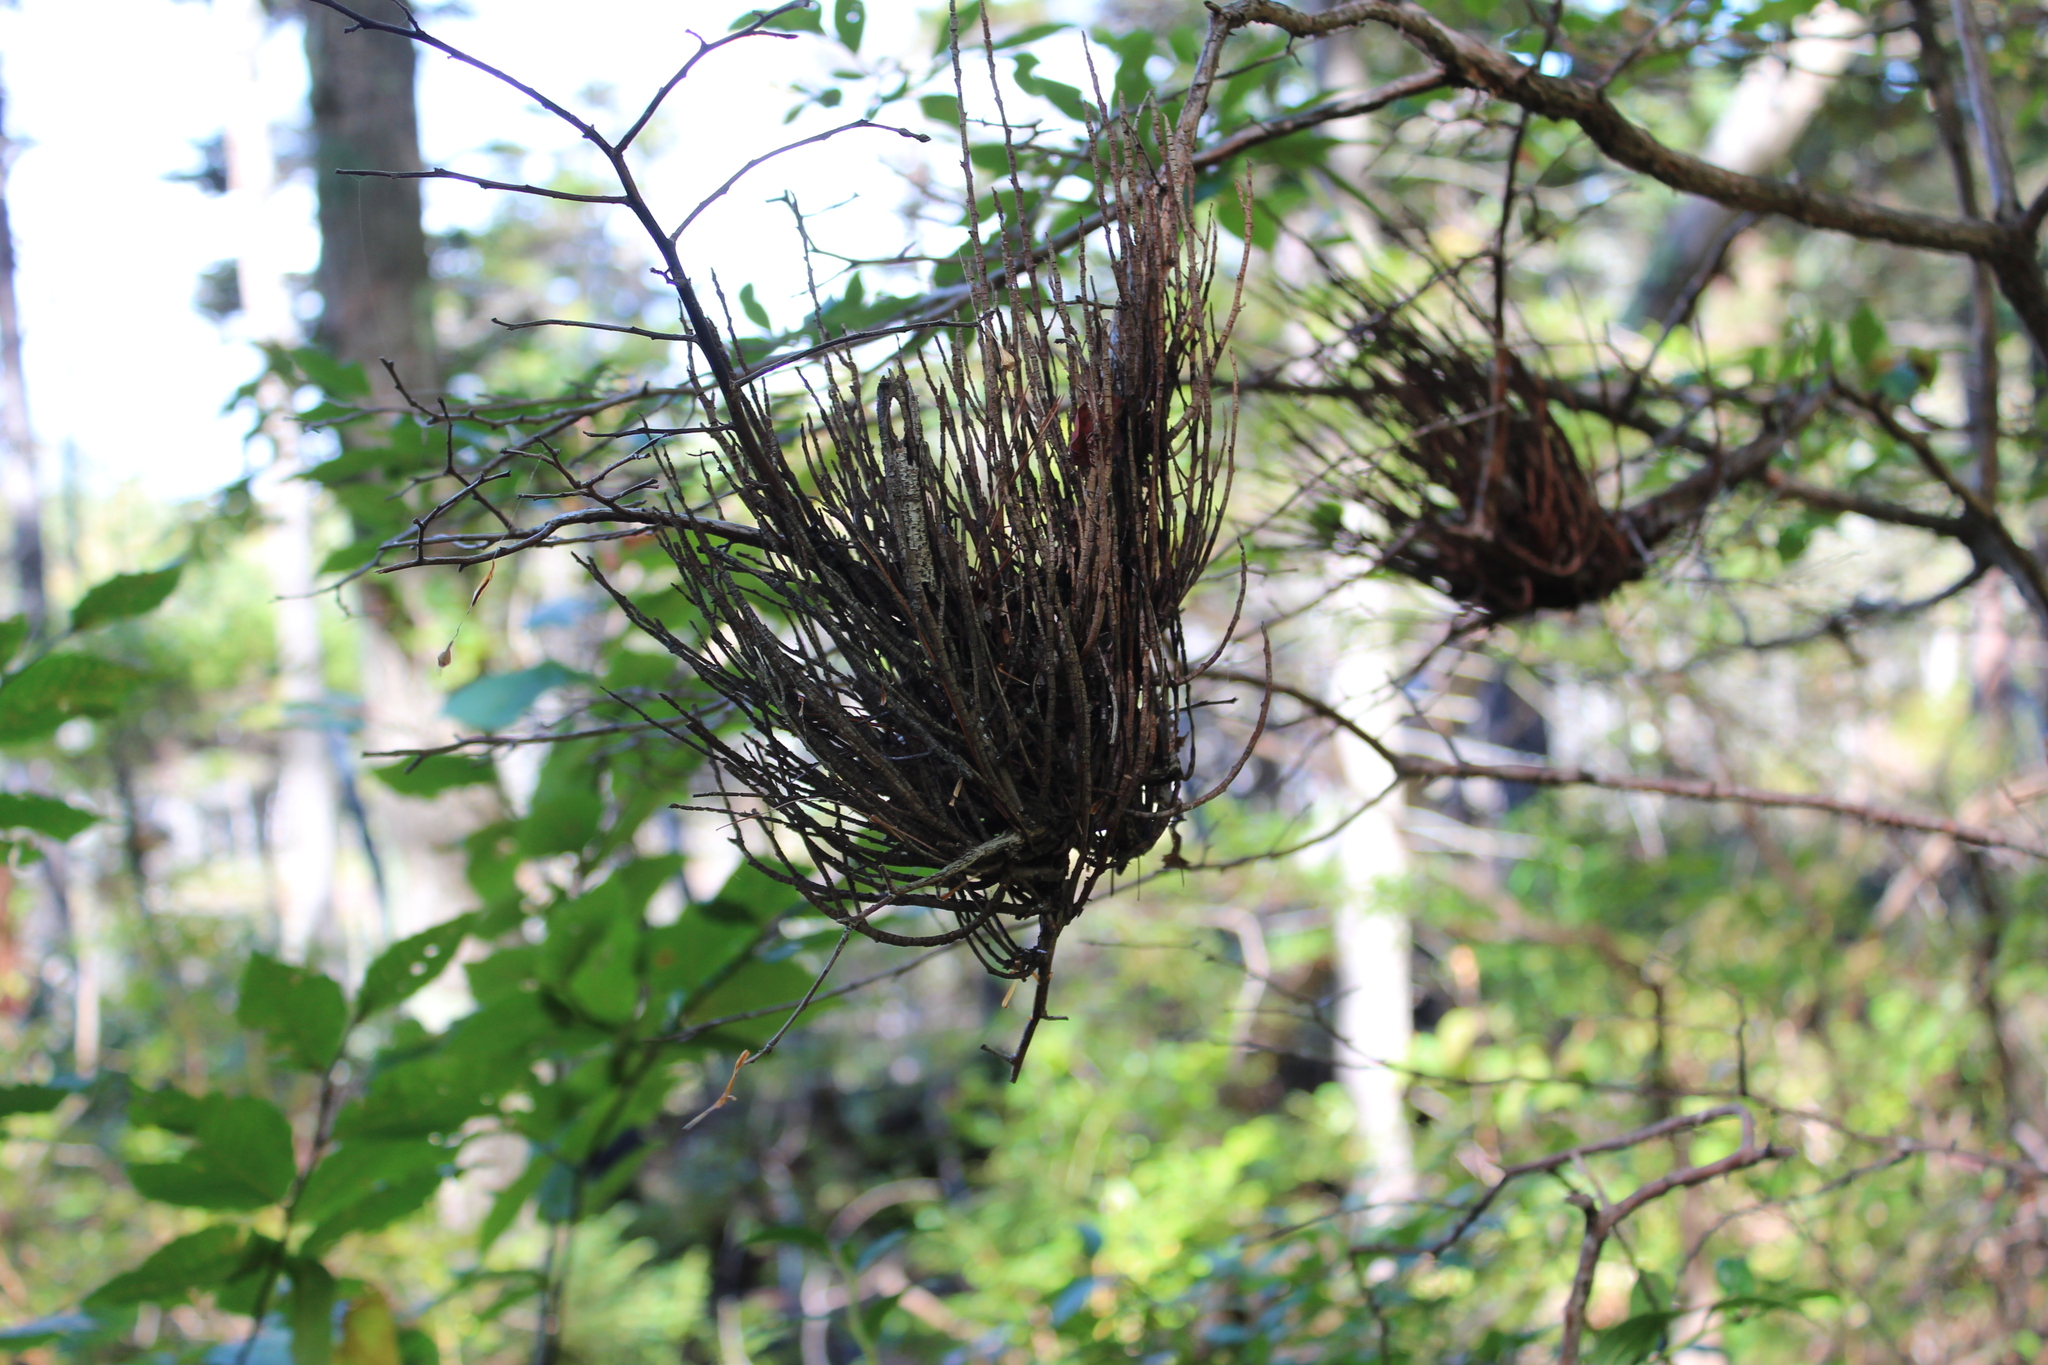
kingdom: Fungi
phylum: Basidiomycota
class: Pucciniomycetes
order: Pucciniales
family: Pucciniastraceae
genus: Calyptospora
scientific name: Calyptospora columnaris
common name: Huckleberry broom rust fungus
